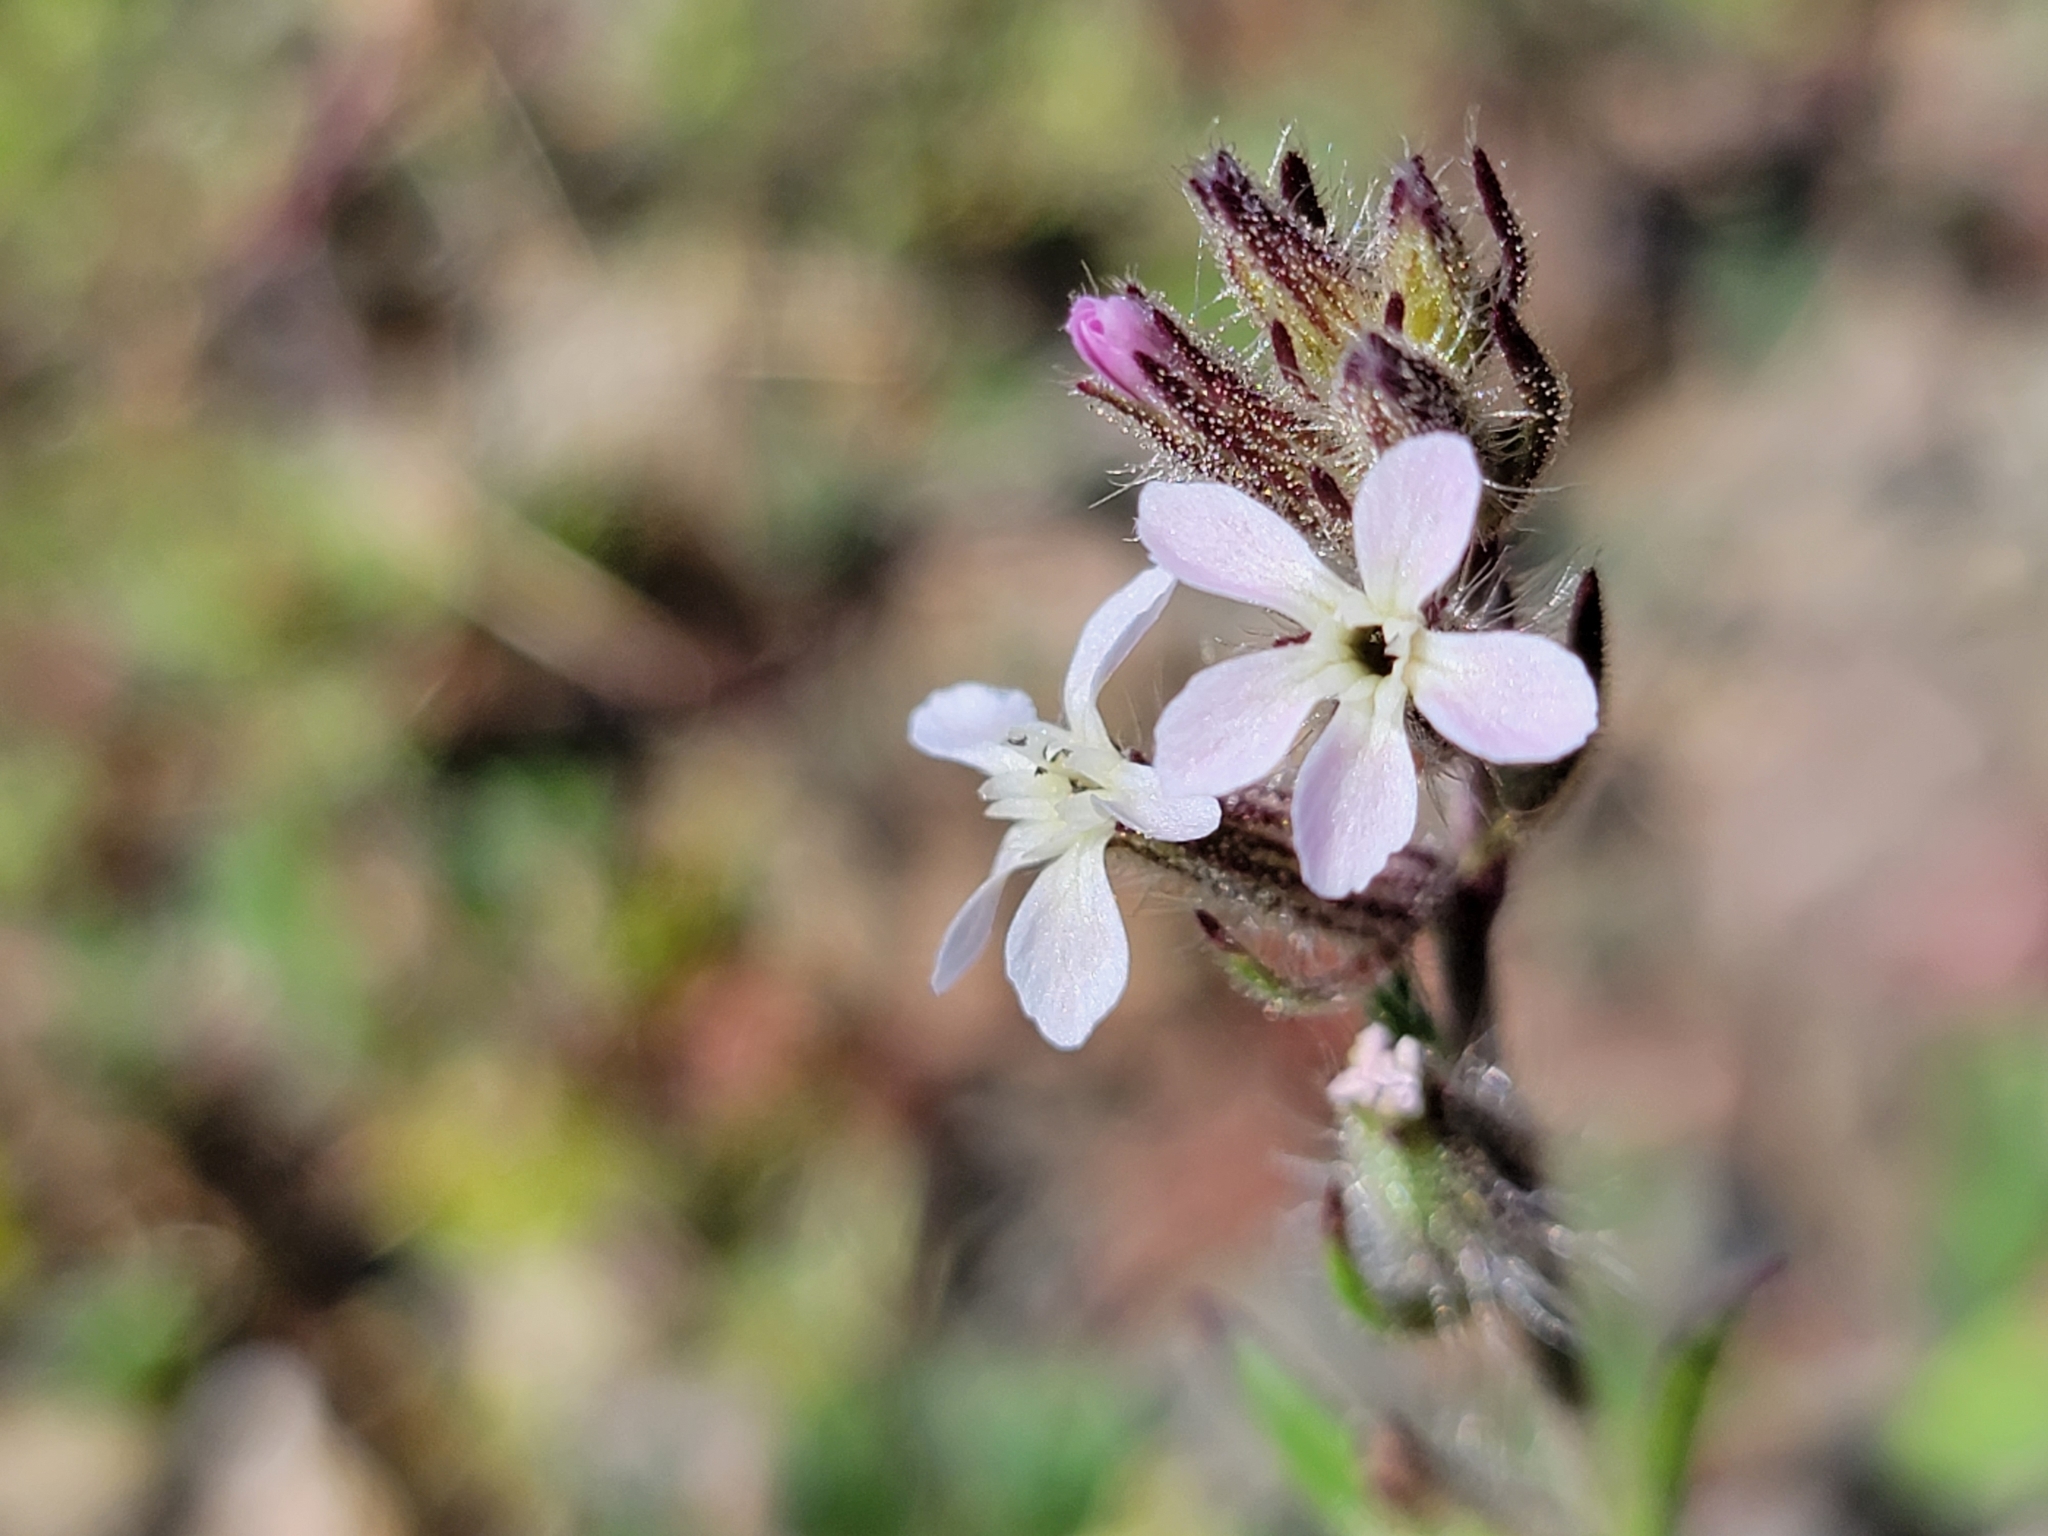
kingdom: Plantae
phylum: Tracheophyta
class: Magnoliopsida
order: Caryophyllales
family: Caryophyllaceae
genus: Silene
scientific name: Silene gallica
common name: Small-flowered catchfly
